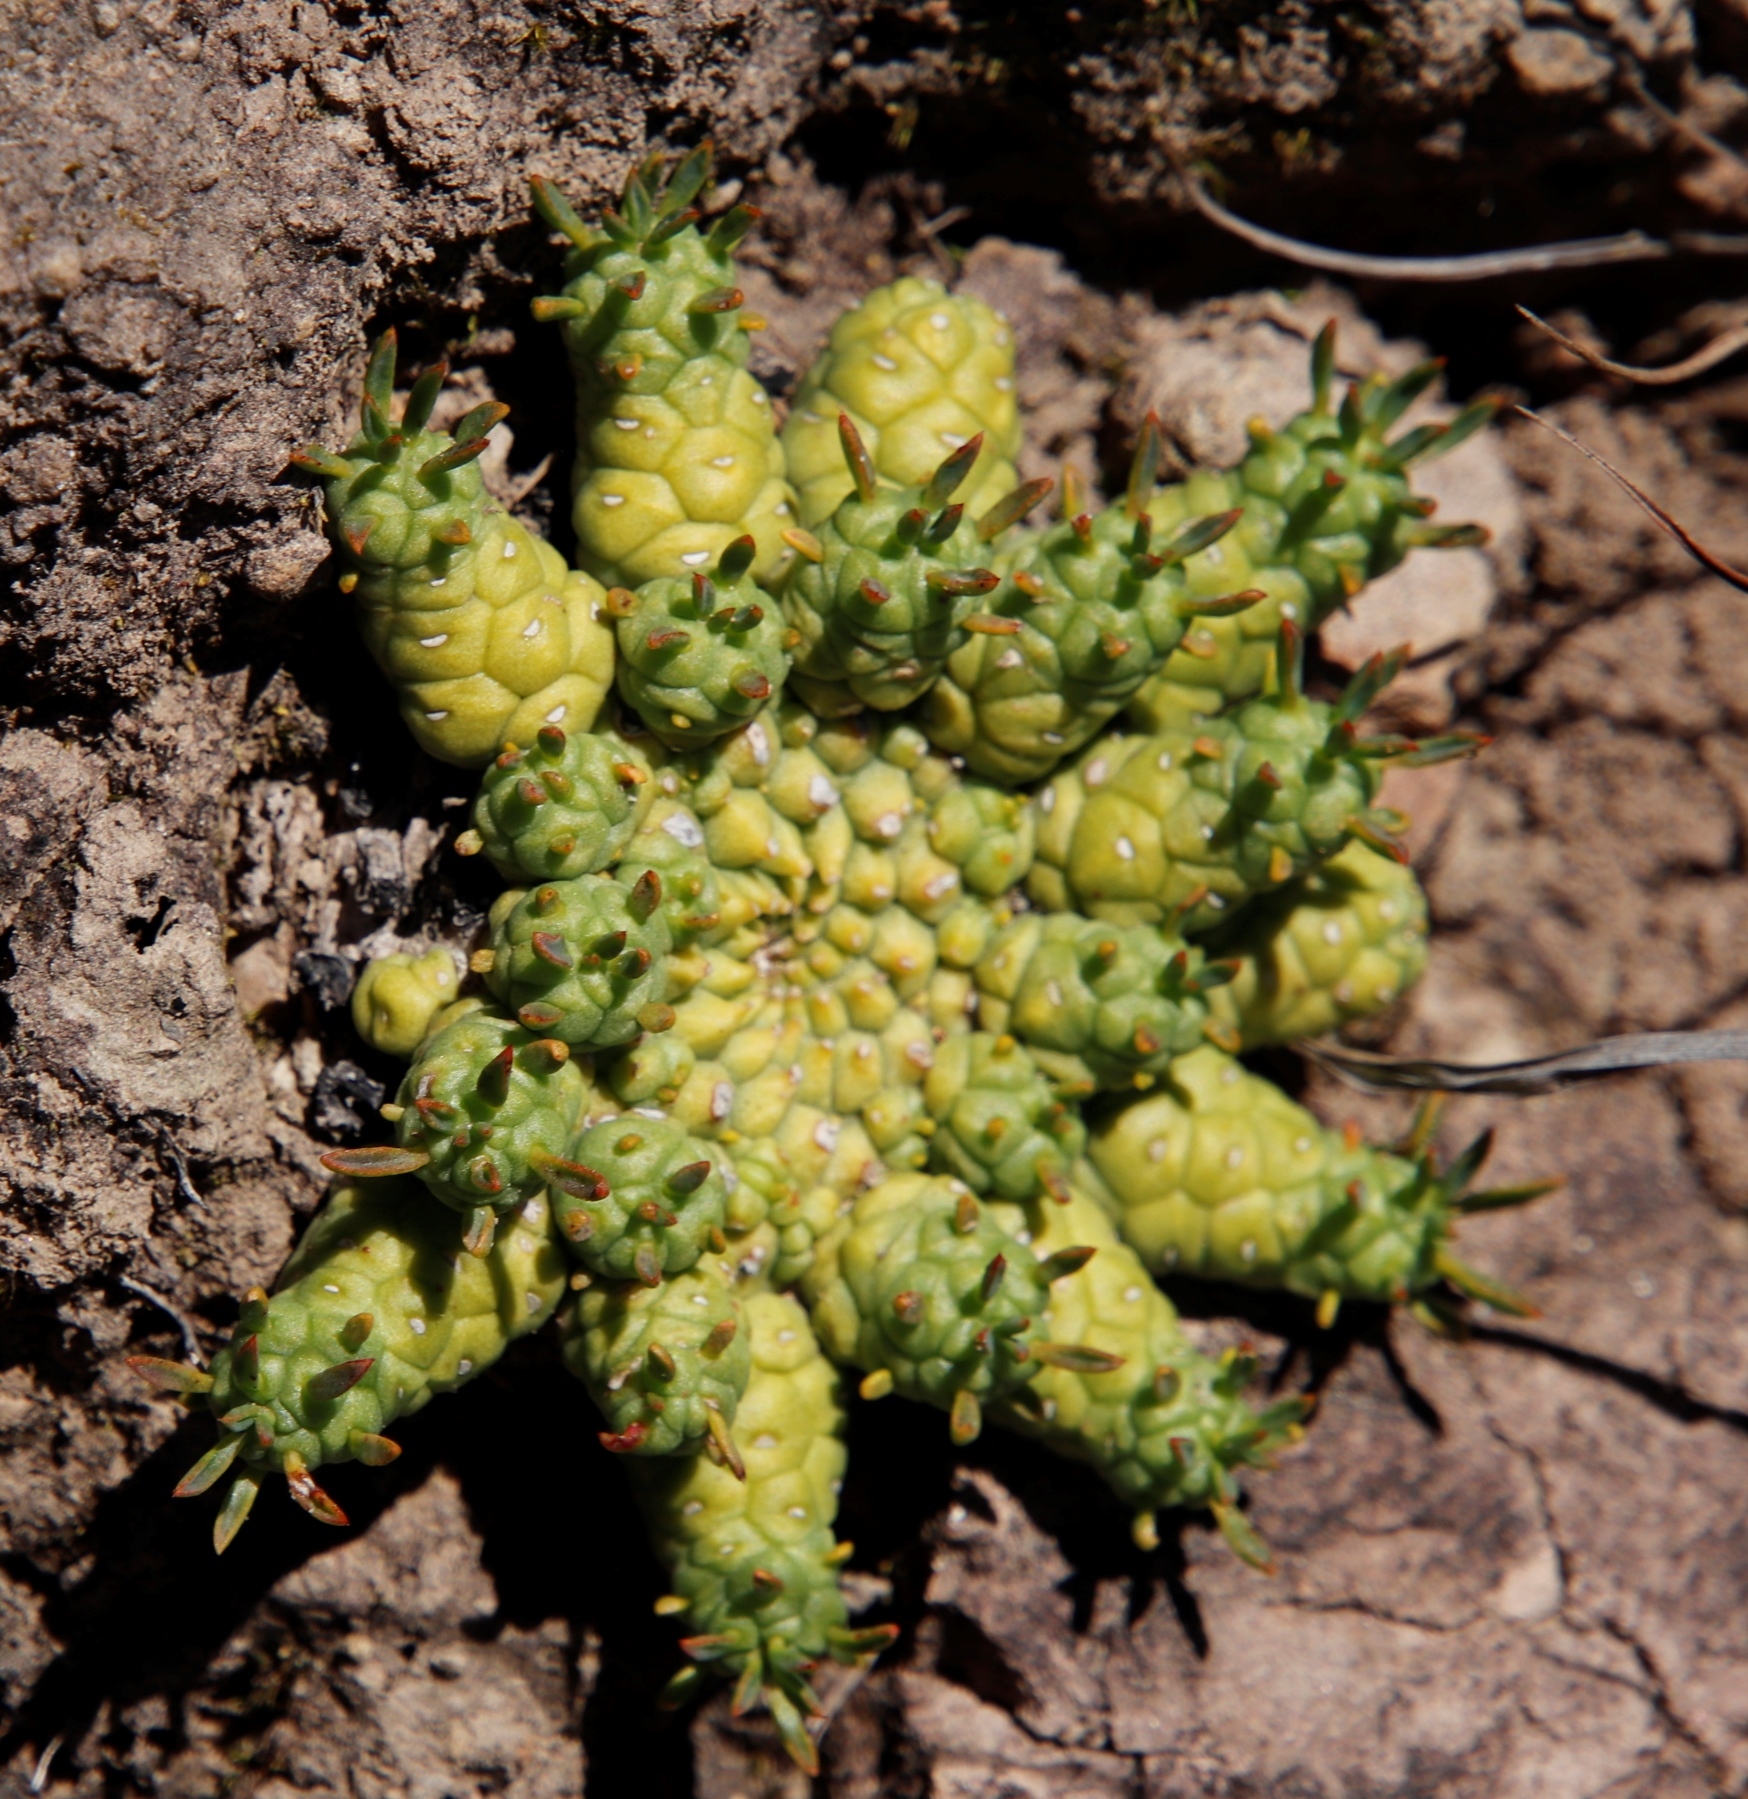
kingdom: Plantae
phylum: Tracheophyta
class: Magnoliopsida
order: Malpighiales
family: Euphorbiaceae
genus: Euphorbia
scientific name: Euphorbia flanaganii
